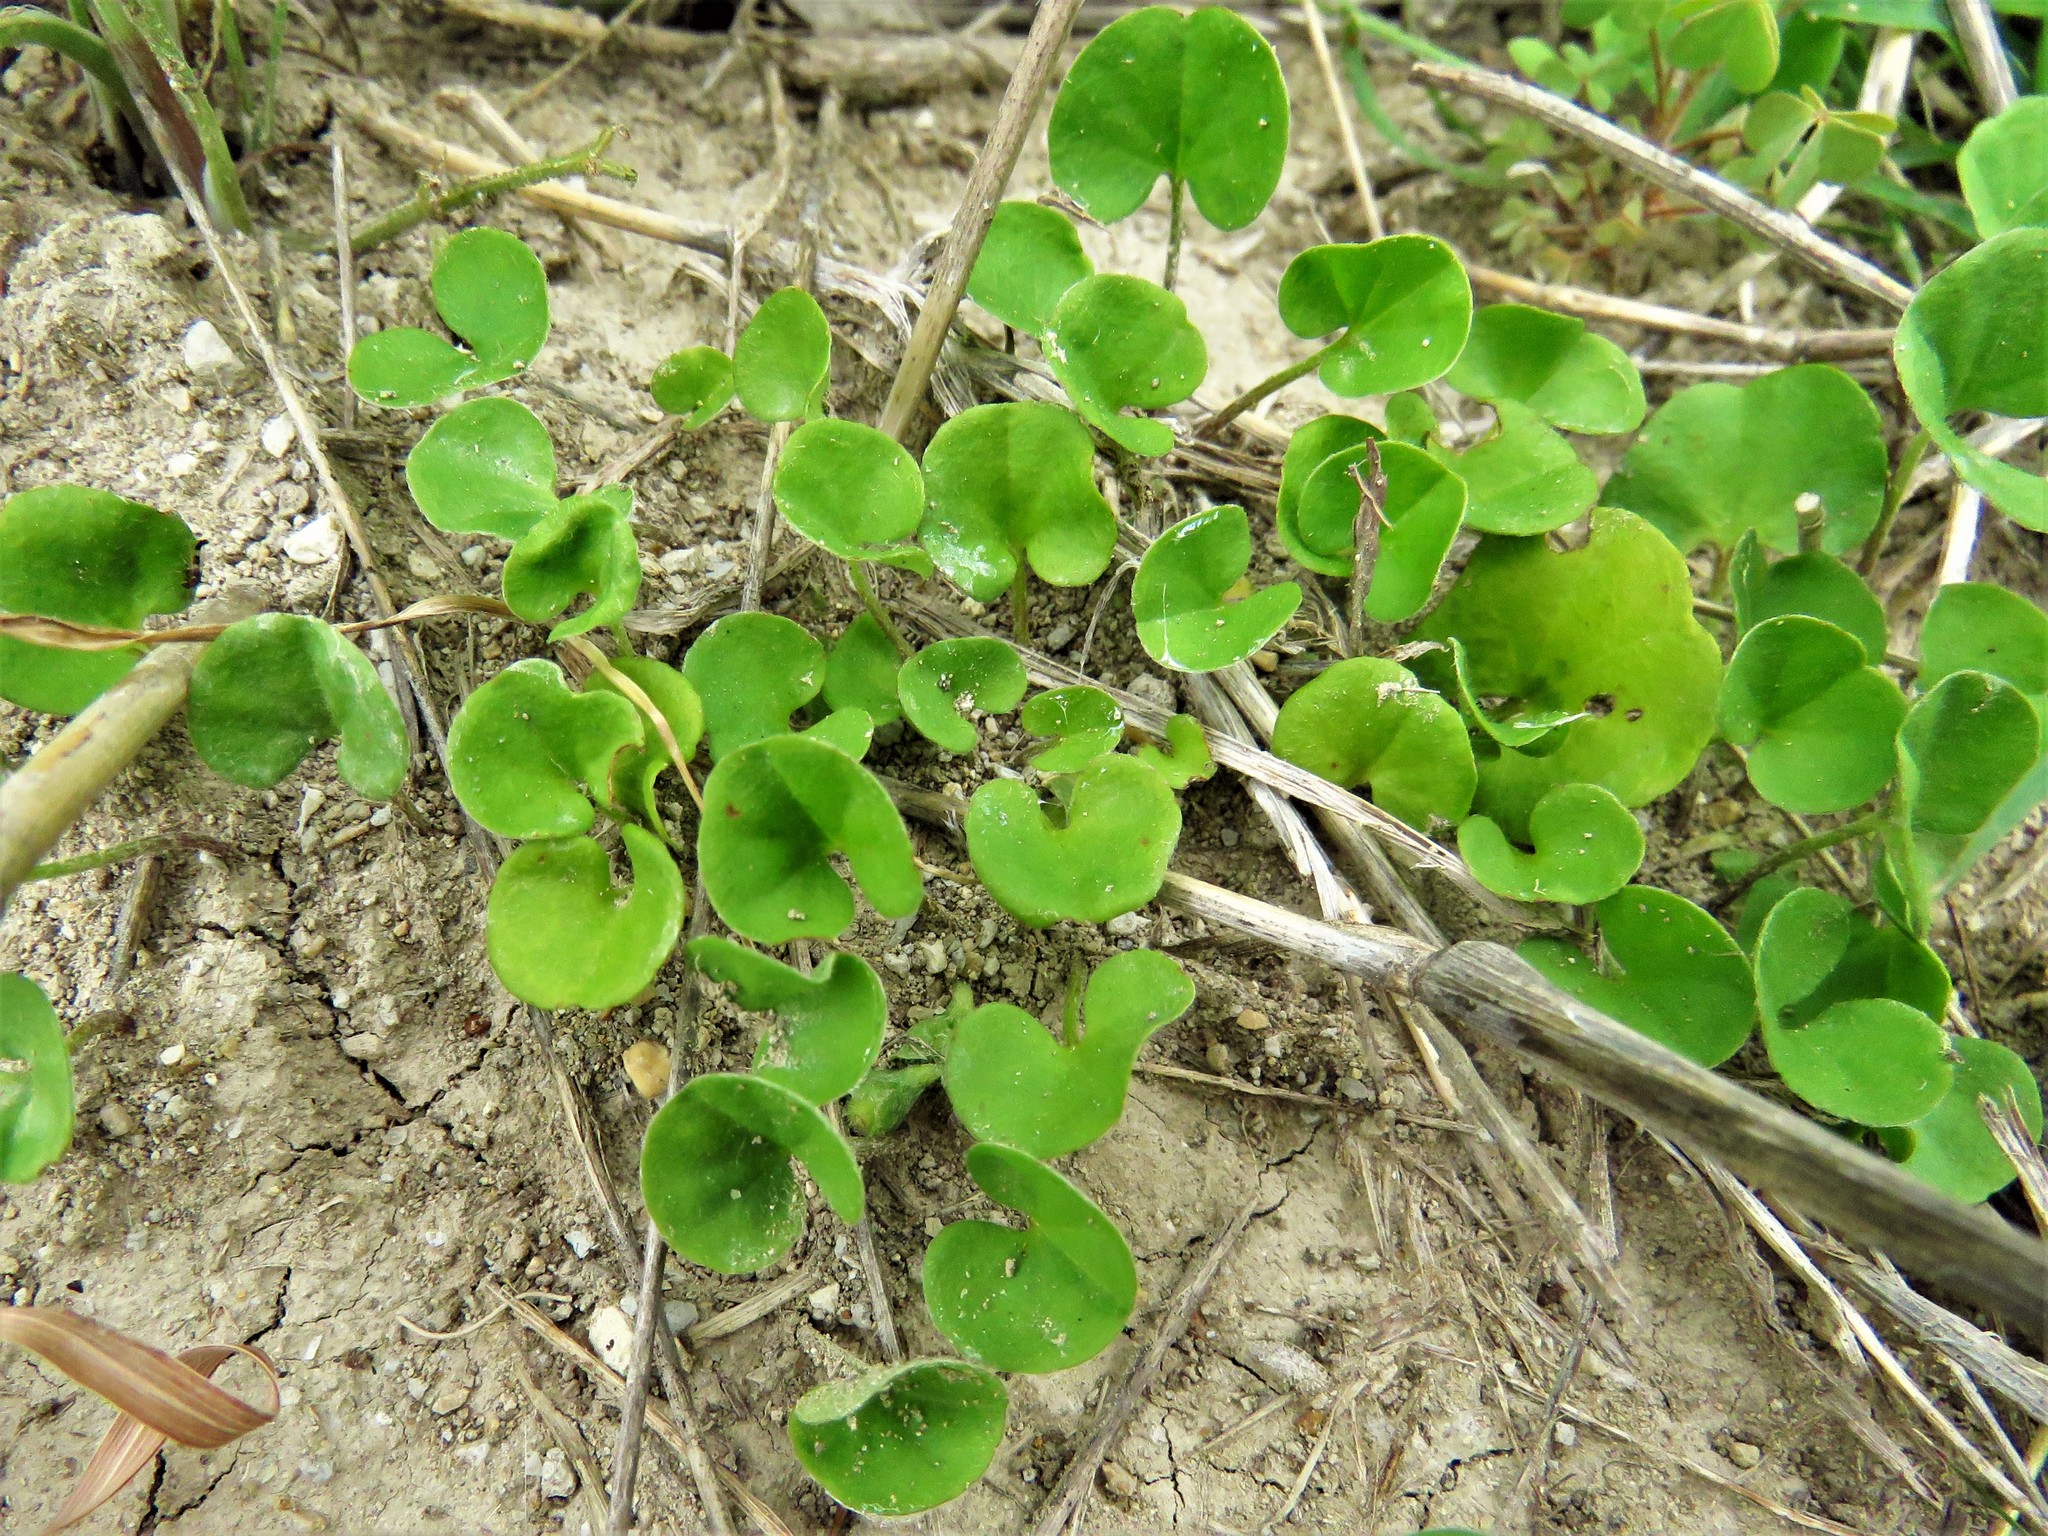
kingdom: Plantae
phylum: Tracheophyta
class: Magnoliopsida
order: Solanales
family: Convolvulaceae
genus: Dichondra
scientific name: Dichondra carolinensis
